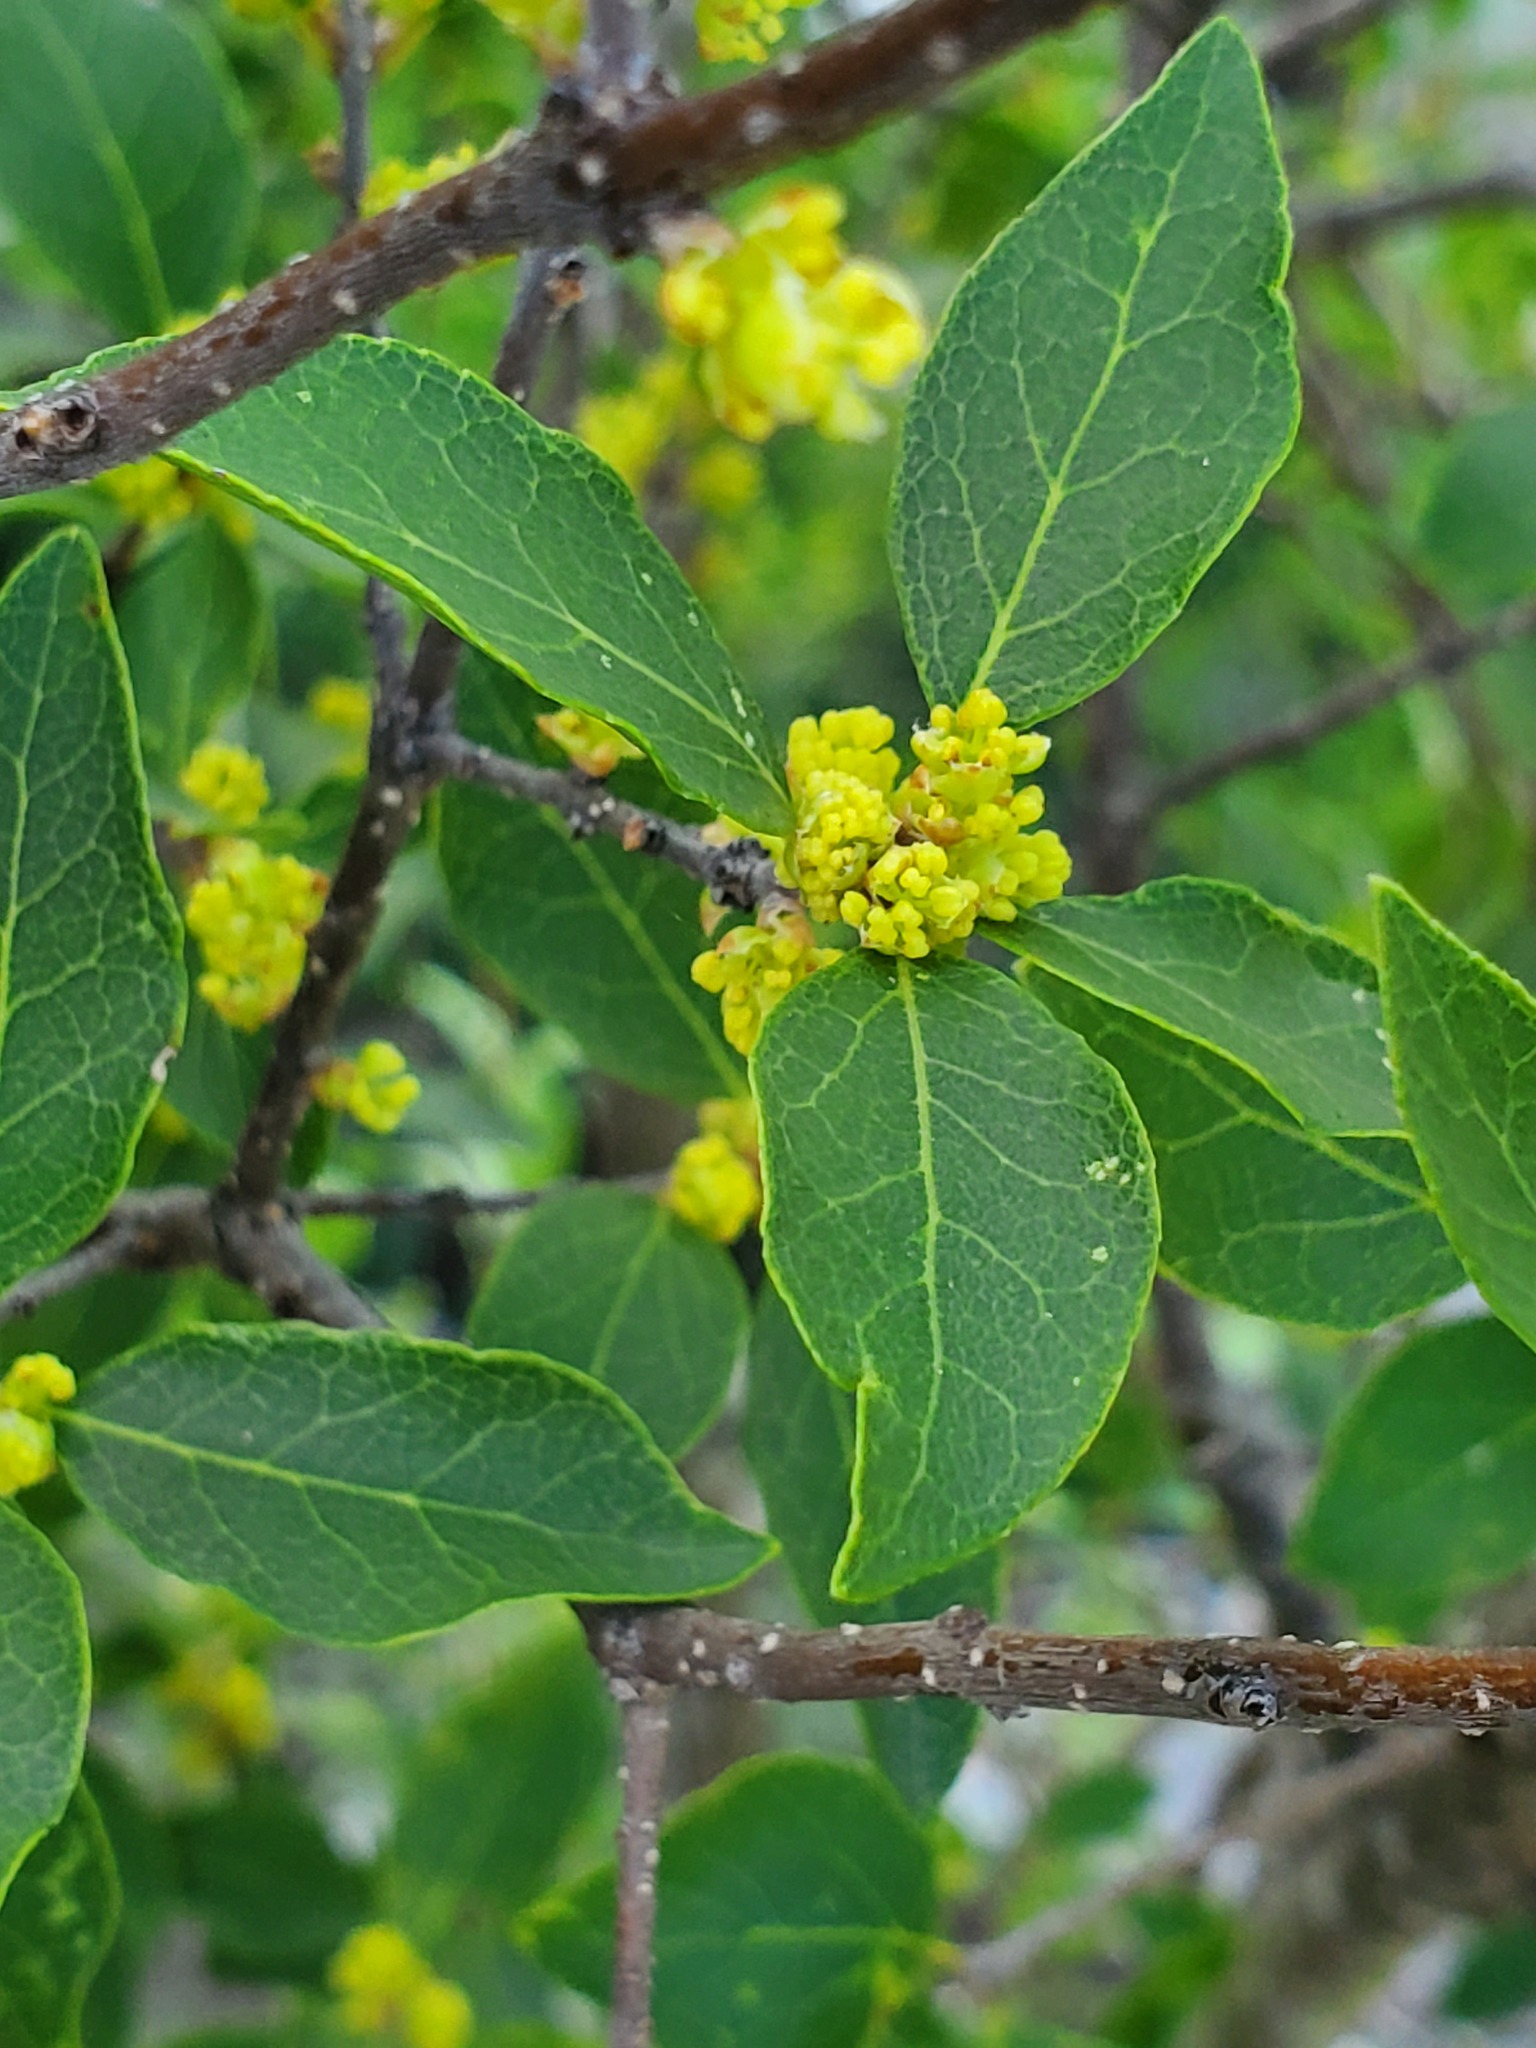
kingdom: Plantae
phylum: Tracheophyta
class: Magnoliopsida
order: Lamiales
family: Oleaceae
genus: Forestiera
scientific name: Forestiera reticulata
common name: Netleaf swamp-privet
